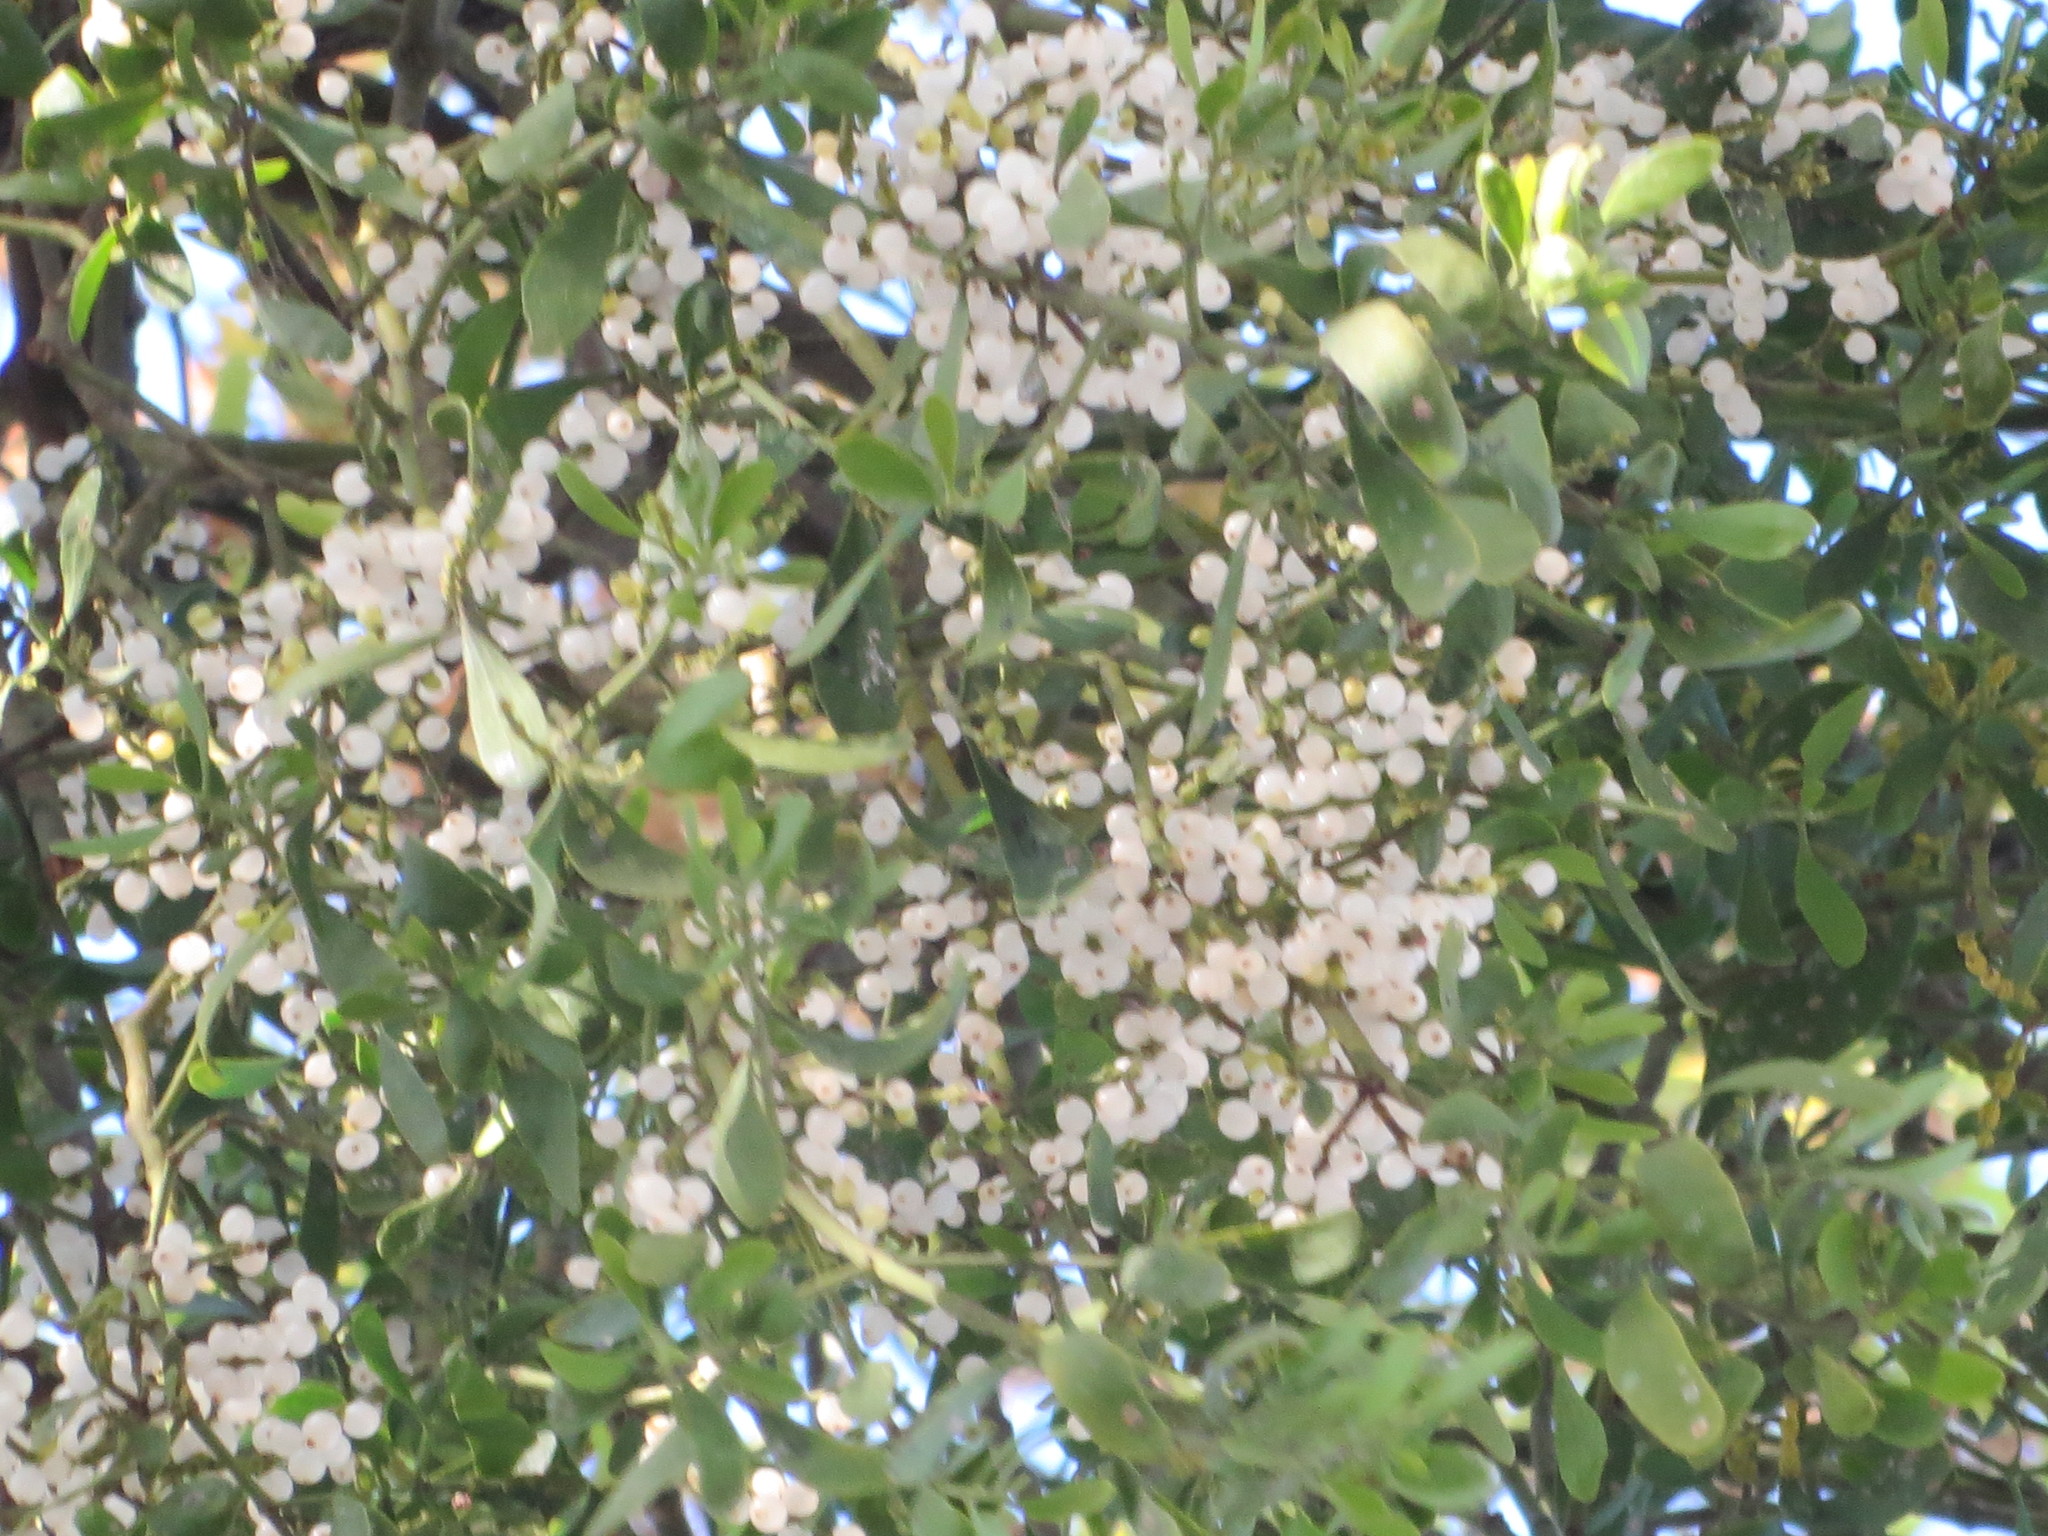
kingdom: Plantae
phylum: Tracheophyta
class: Magnoliopsida
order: Santalales
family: Viscaceae
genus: Phoradendron
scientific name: Phoradendron leucarpum
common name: Pacific mistletoe
